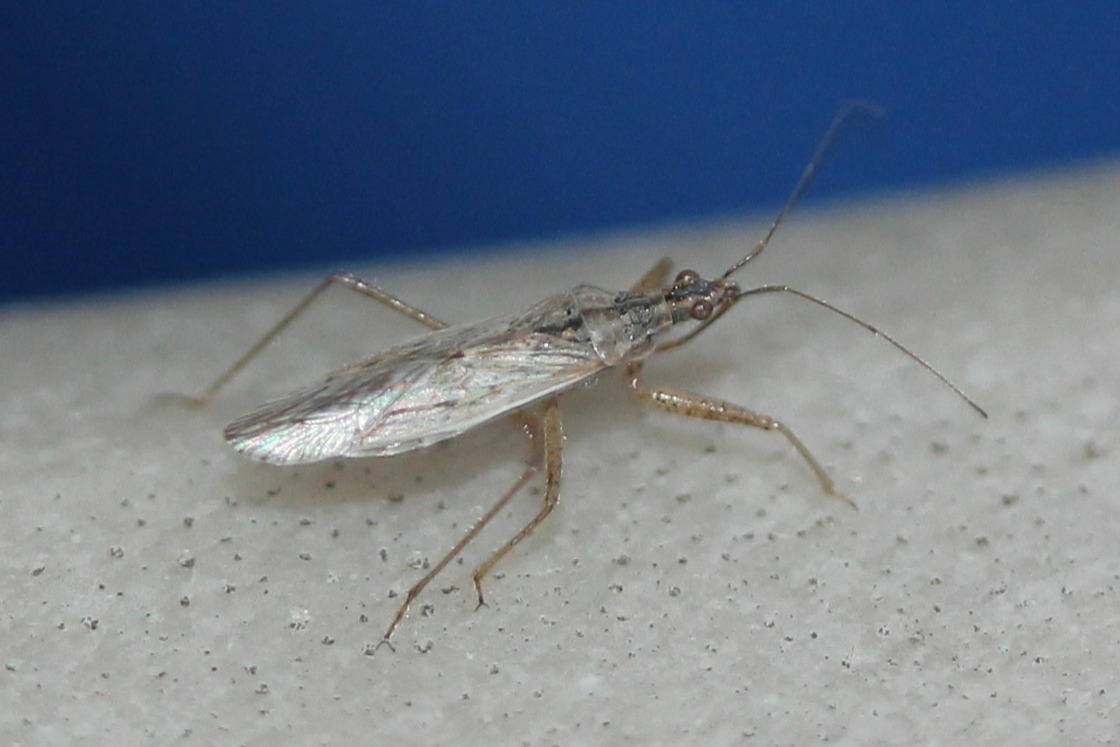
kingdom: Animalia
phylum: Arthropoda
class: Insecta
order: Hemiptera
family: Nabidae
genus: Nabis
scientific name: Nabis americoferus
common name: Common damsel bug
